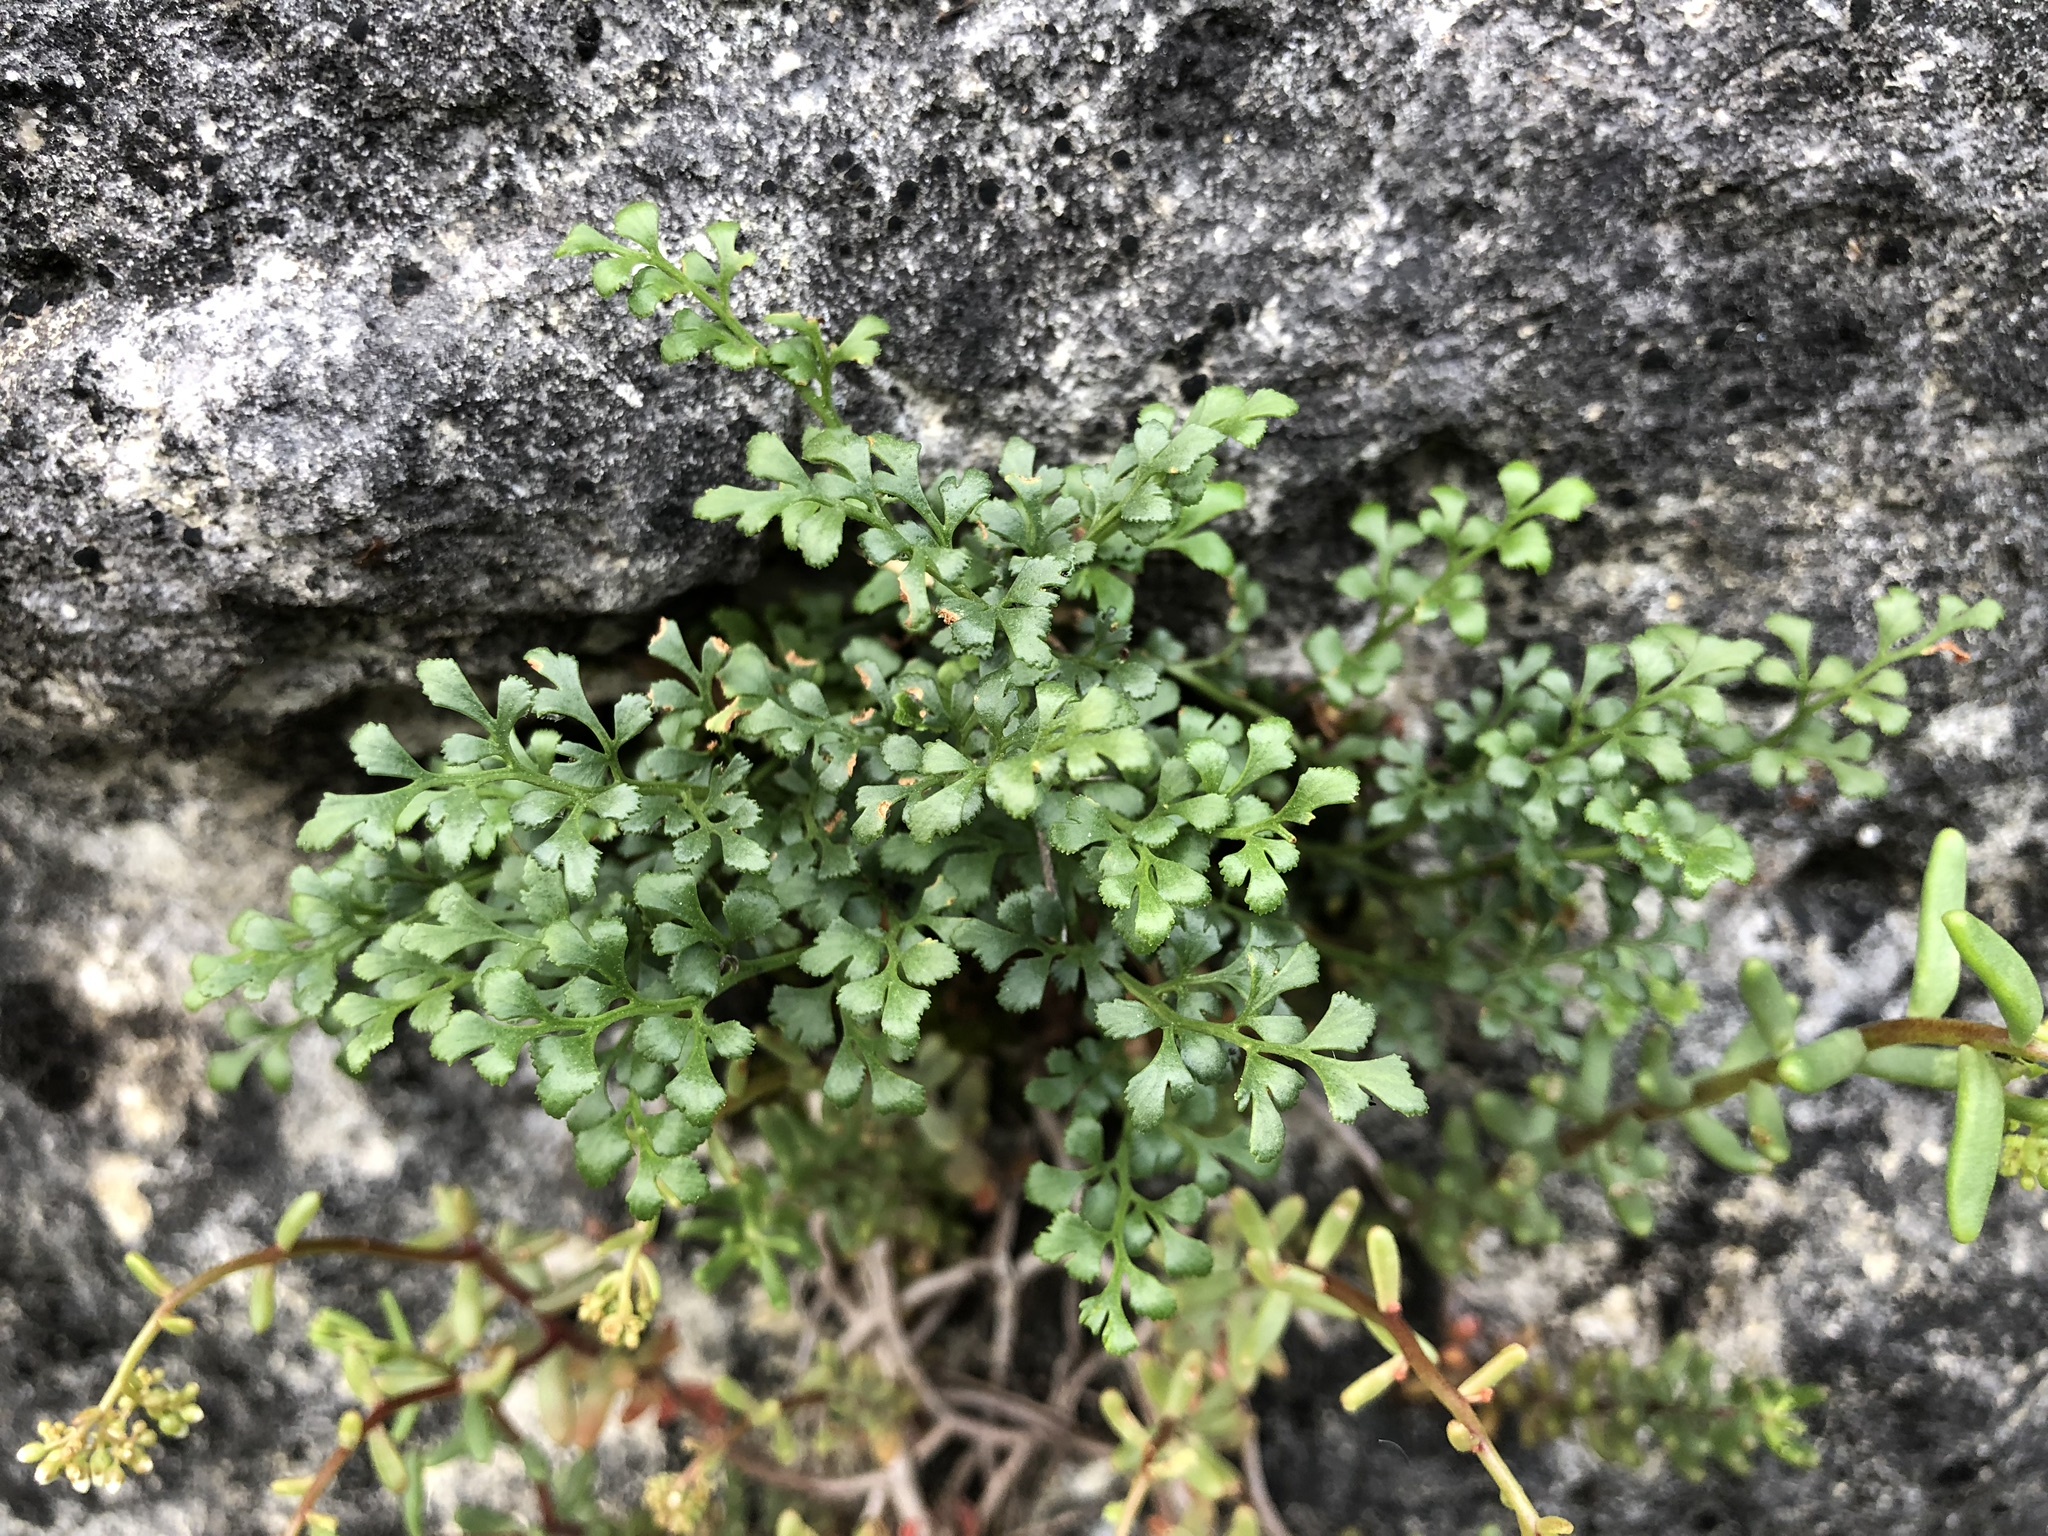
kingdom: Plantae
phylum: Tracheophyta
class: Polypodiopsida
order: Polypodiales
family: Aspleniaceae
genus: Asplenium
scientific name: Asplenium ruta-muraria
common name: Wall-rue
